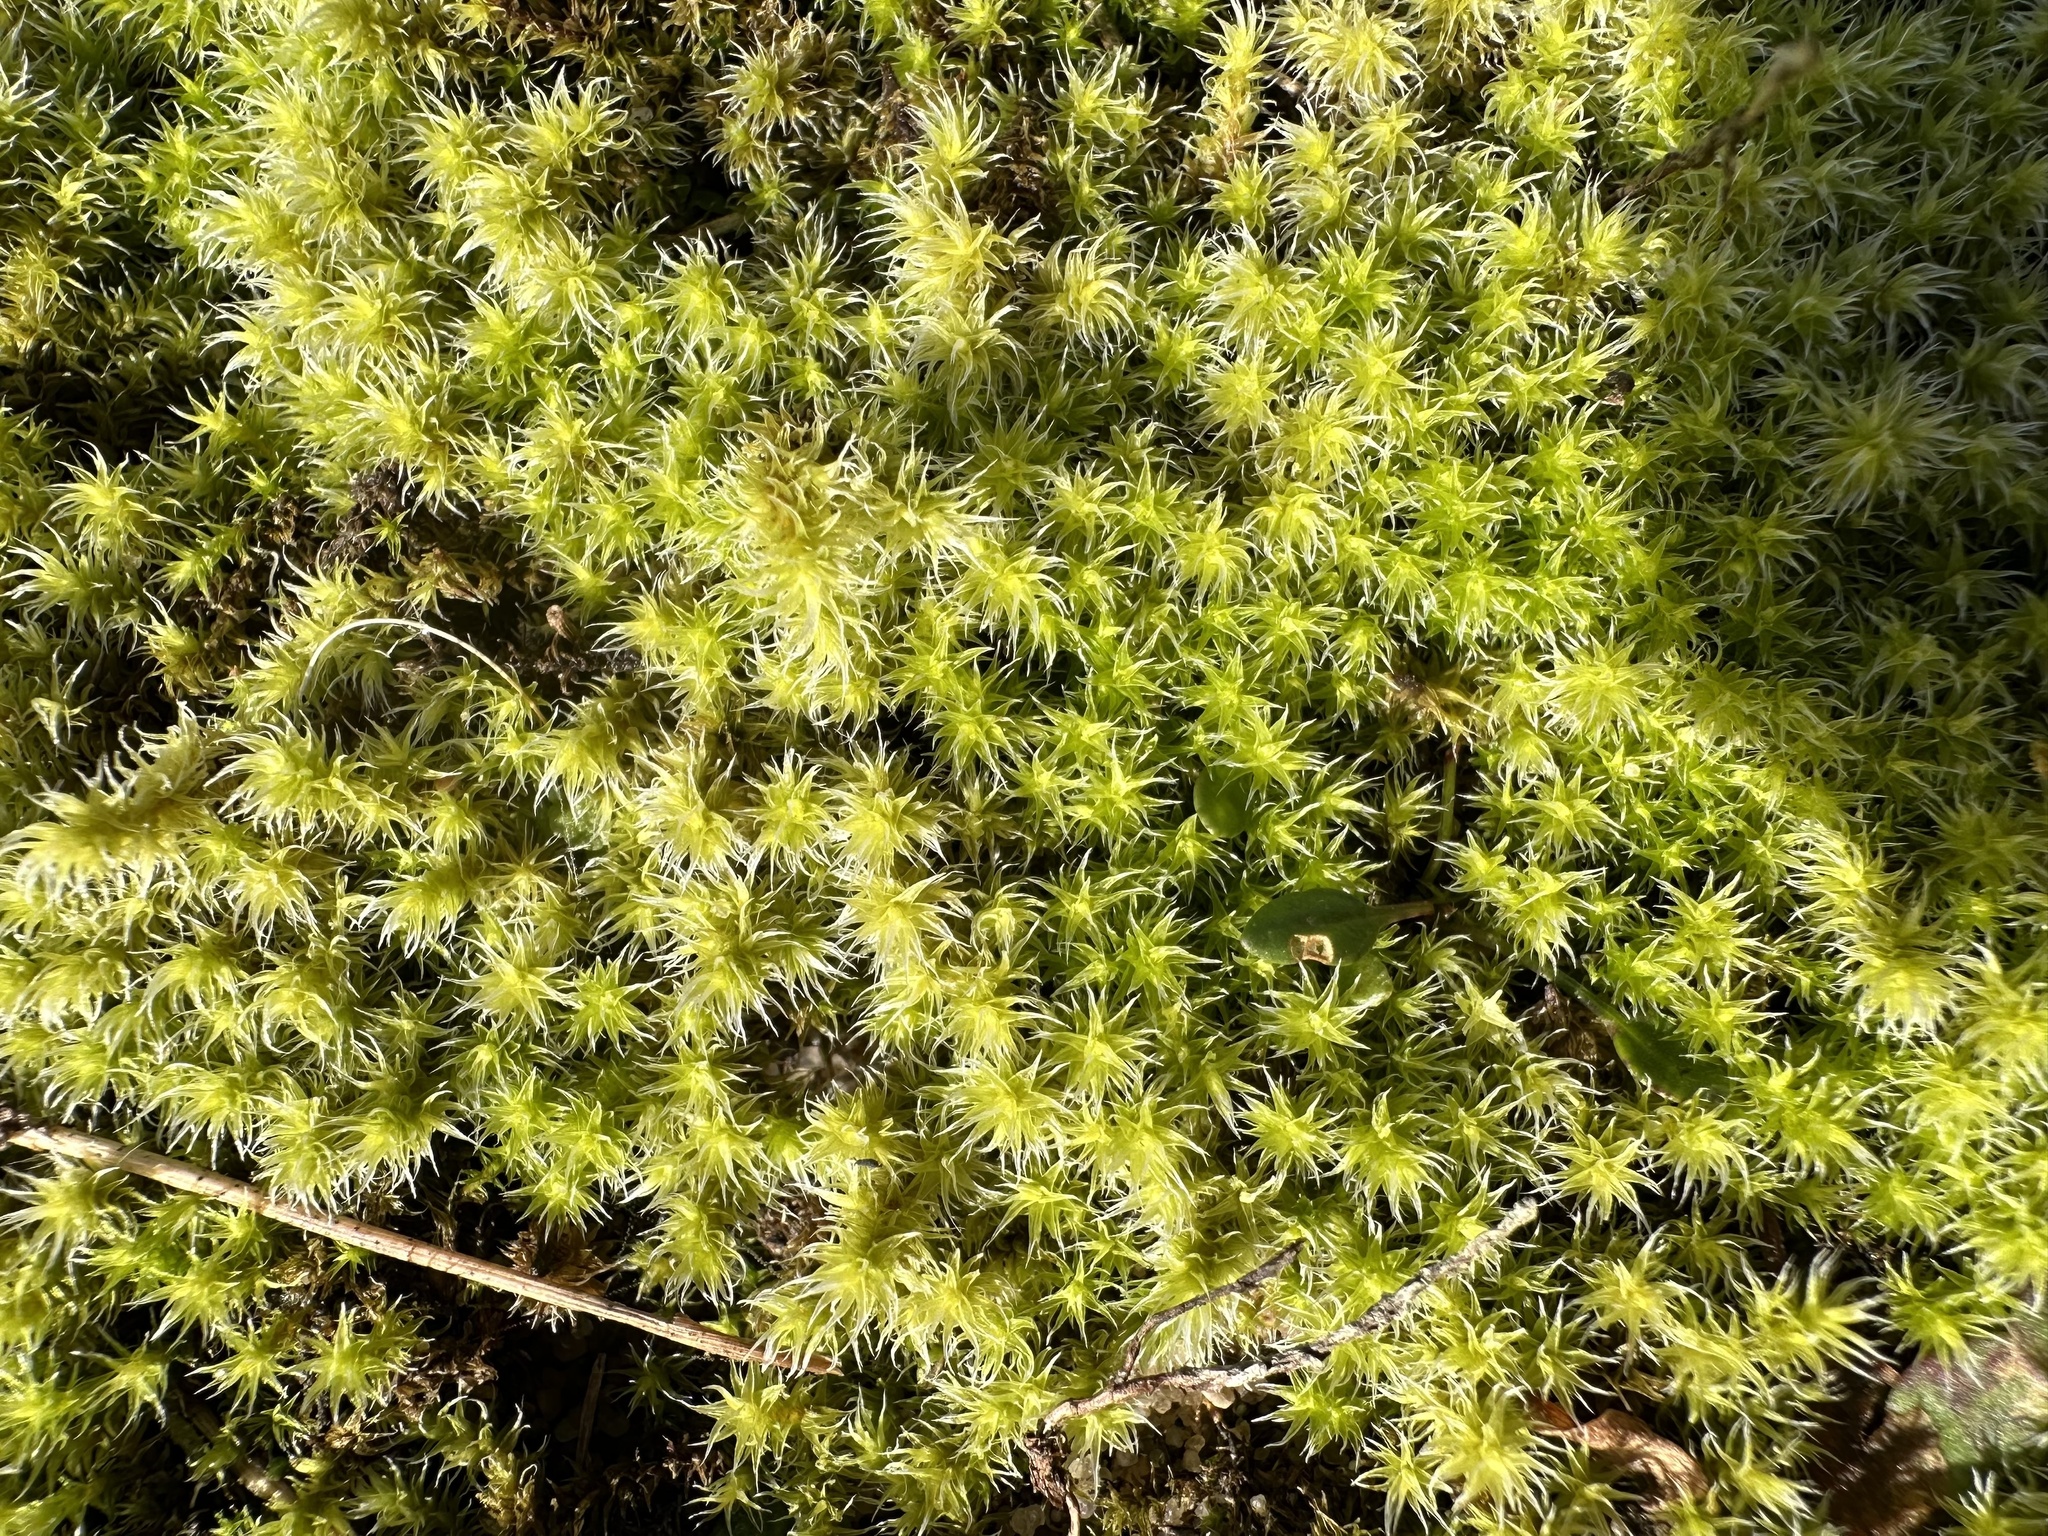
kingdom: Plantae
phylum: Bryophyta
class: Bryopsida
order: Grimmiales
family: Grimmiaceae
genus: Niphotrichum
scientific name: Niphotrichum elongatum
